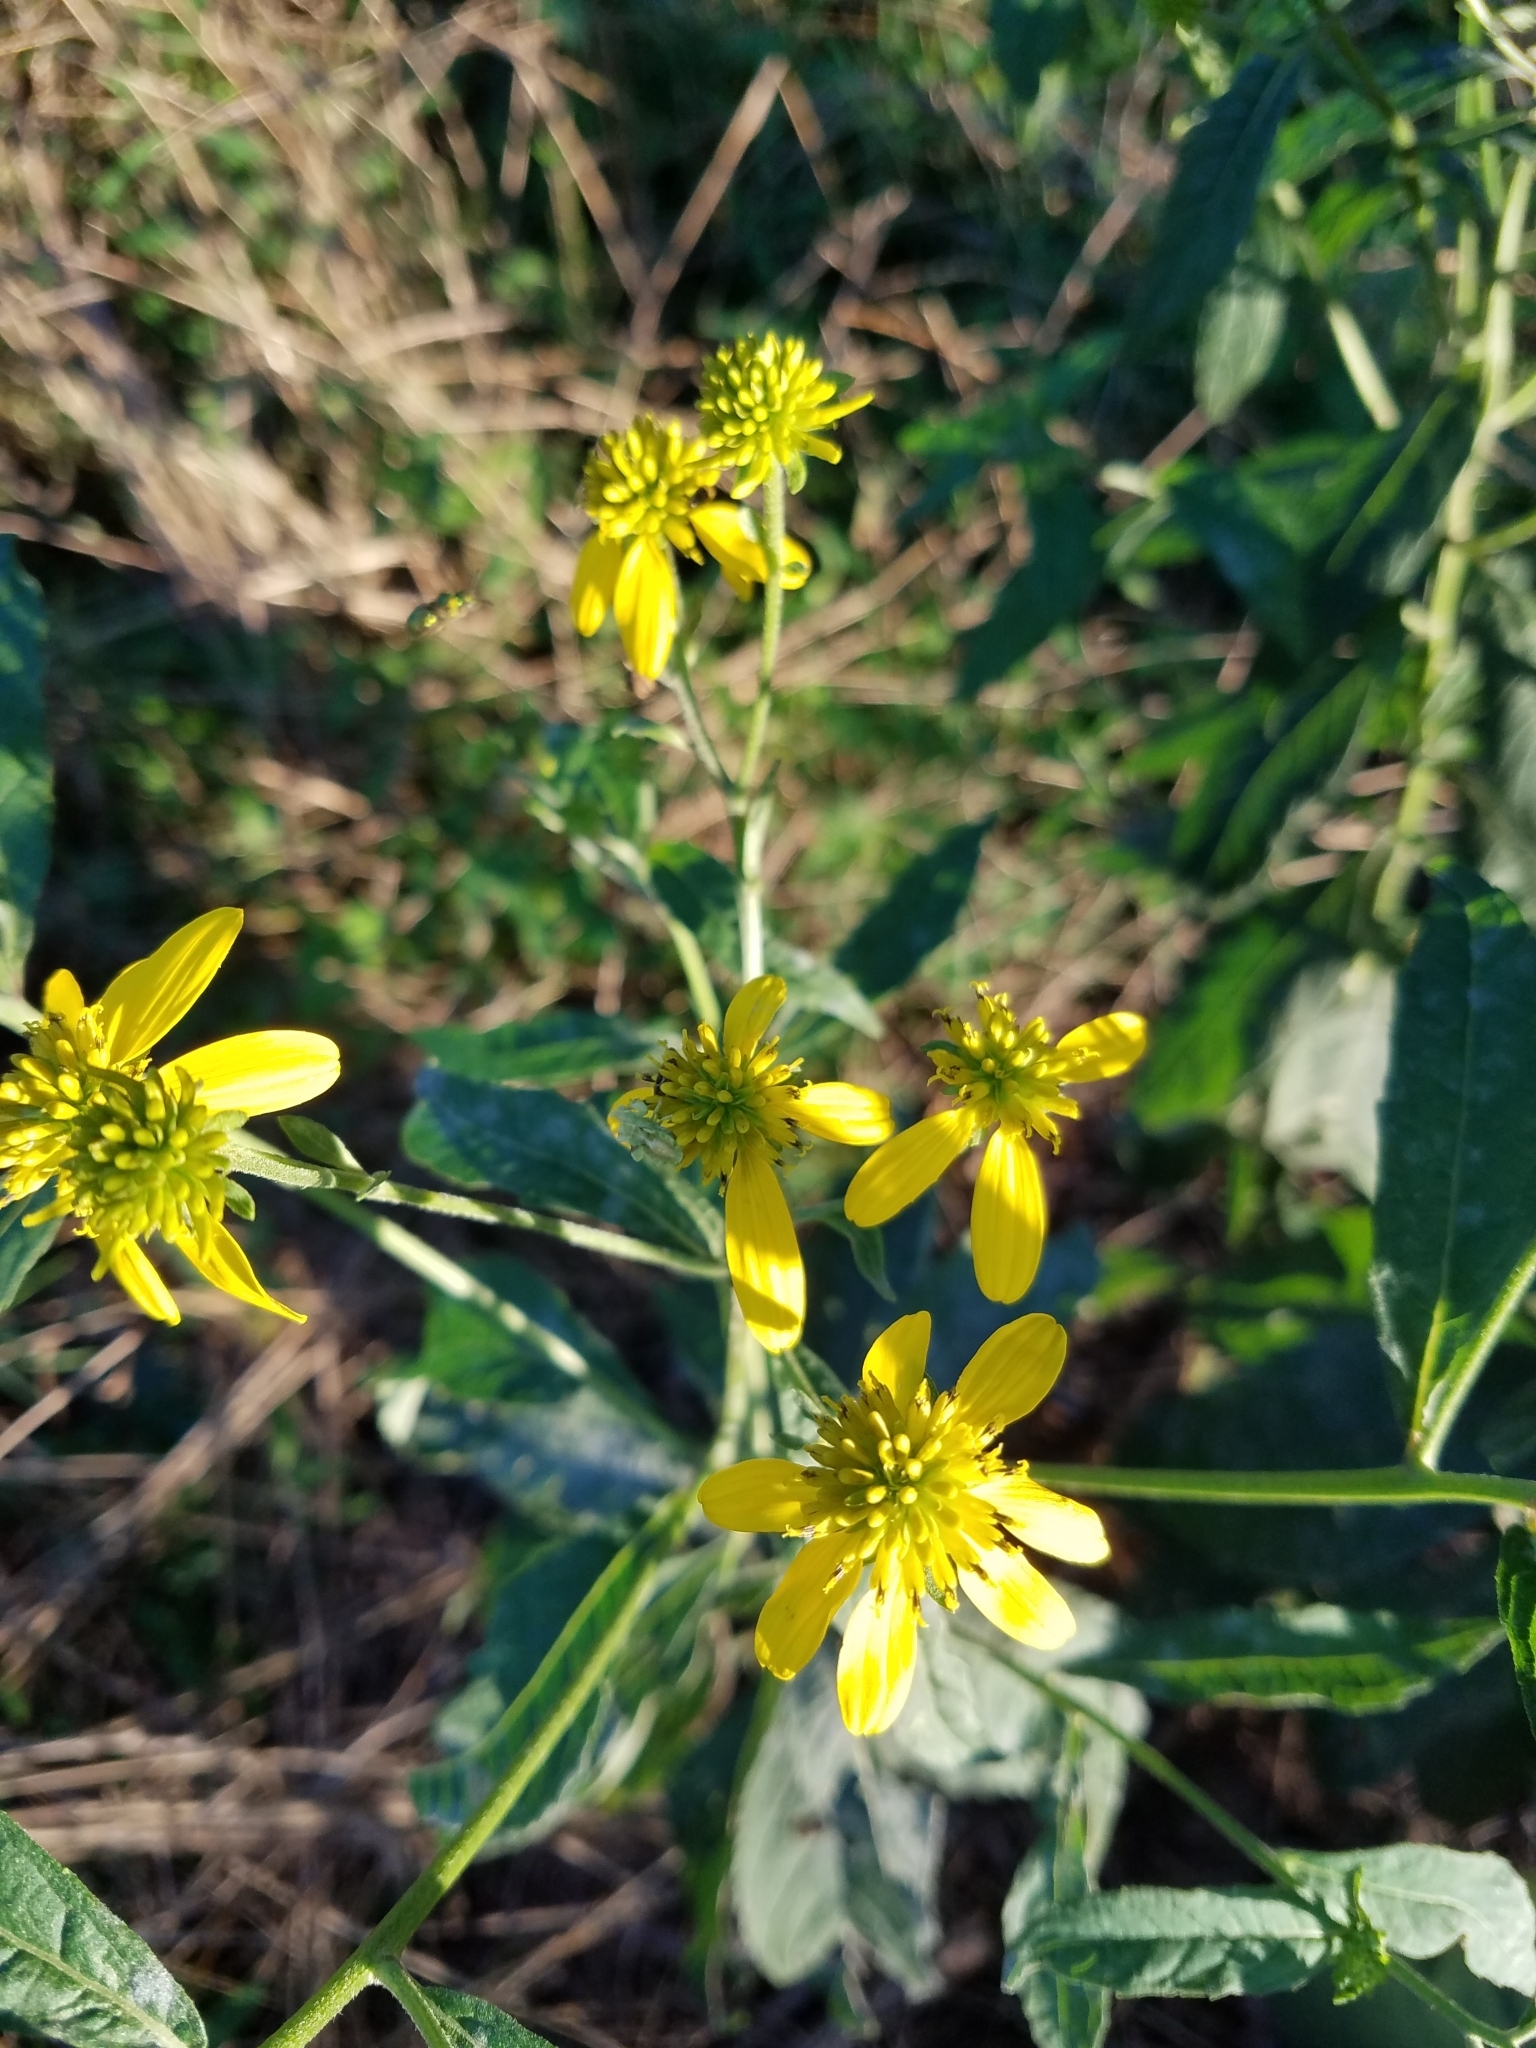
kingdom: Plantae
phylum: Tracheophyta
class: Magnoliopsida
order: Asterales
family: Asteraceae
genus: Verbesina
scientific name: Verbesina alternifolia
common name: Wingstem
